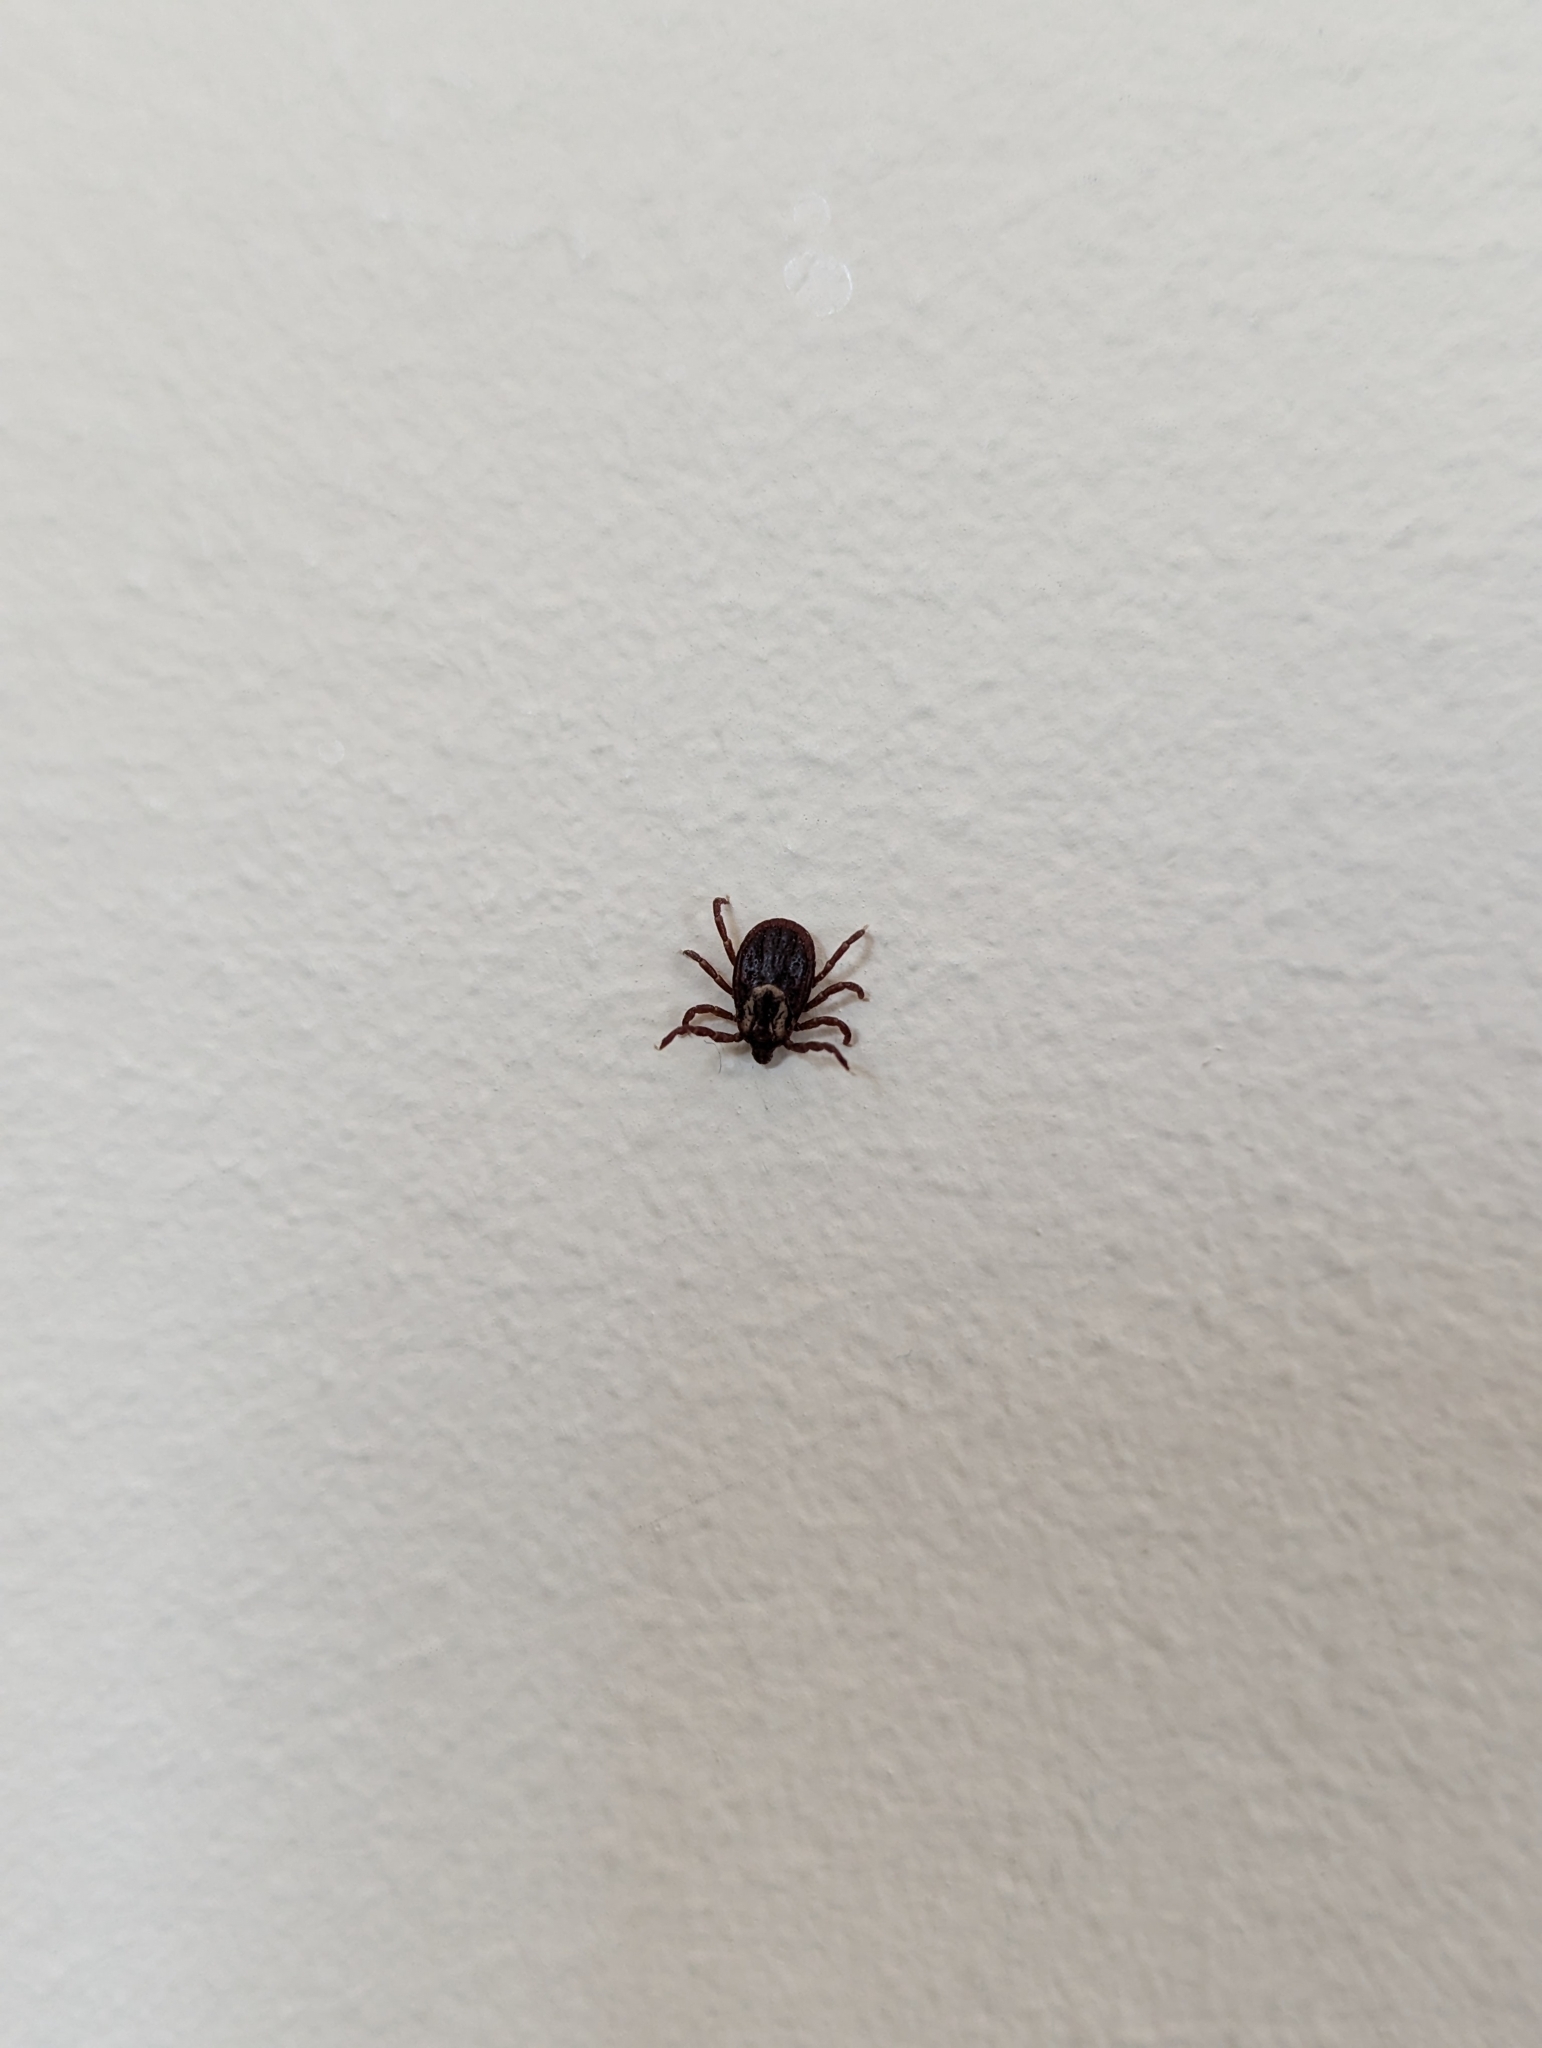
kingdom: Animalia
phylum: Arthropoda
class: Arachnida
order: Ixodida
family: Ixodidae
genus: Dermacentor
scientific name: Dermacentor variabilis
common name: American dog tick
